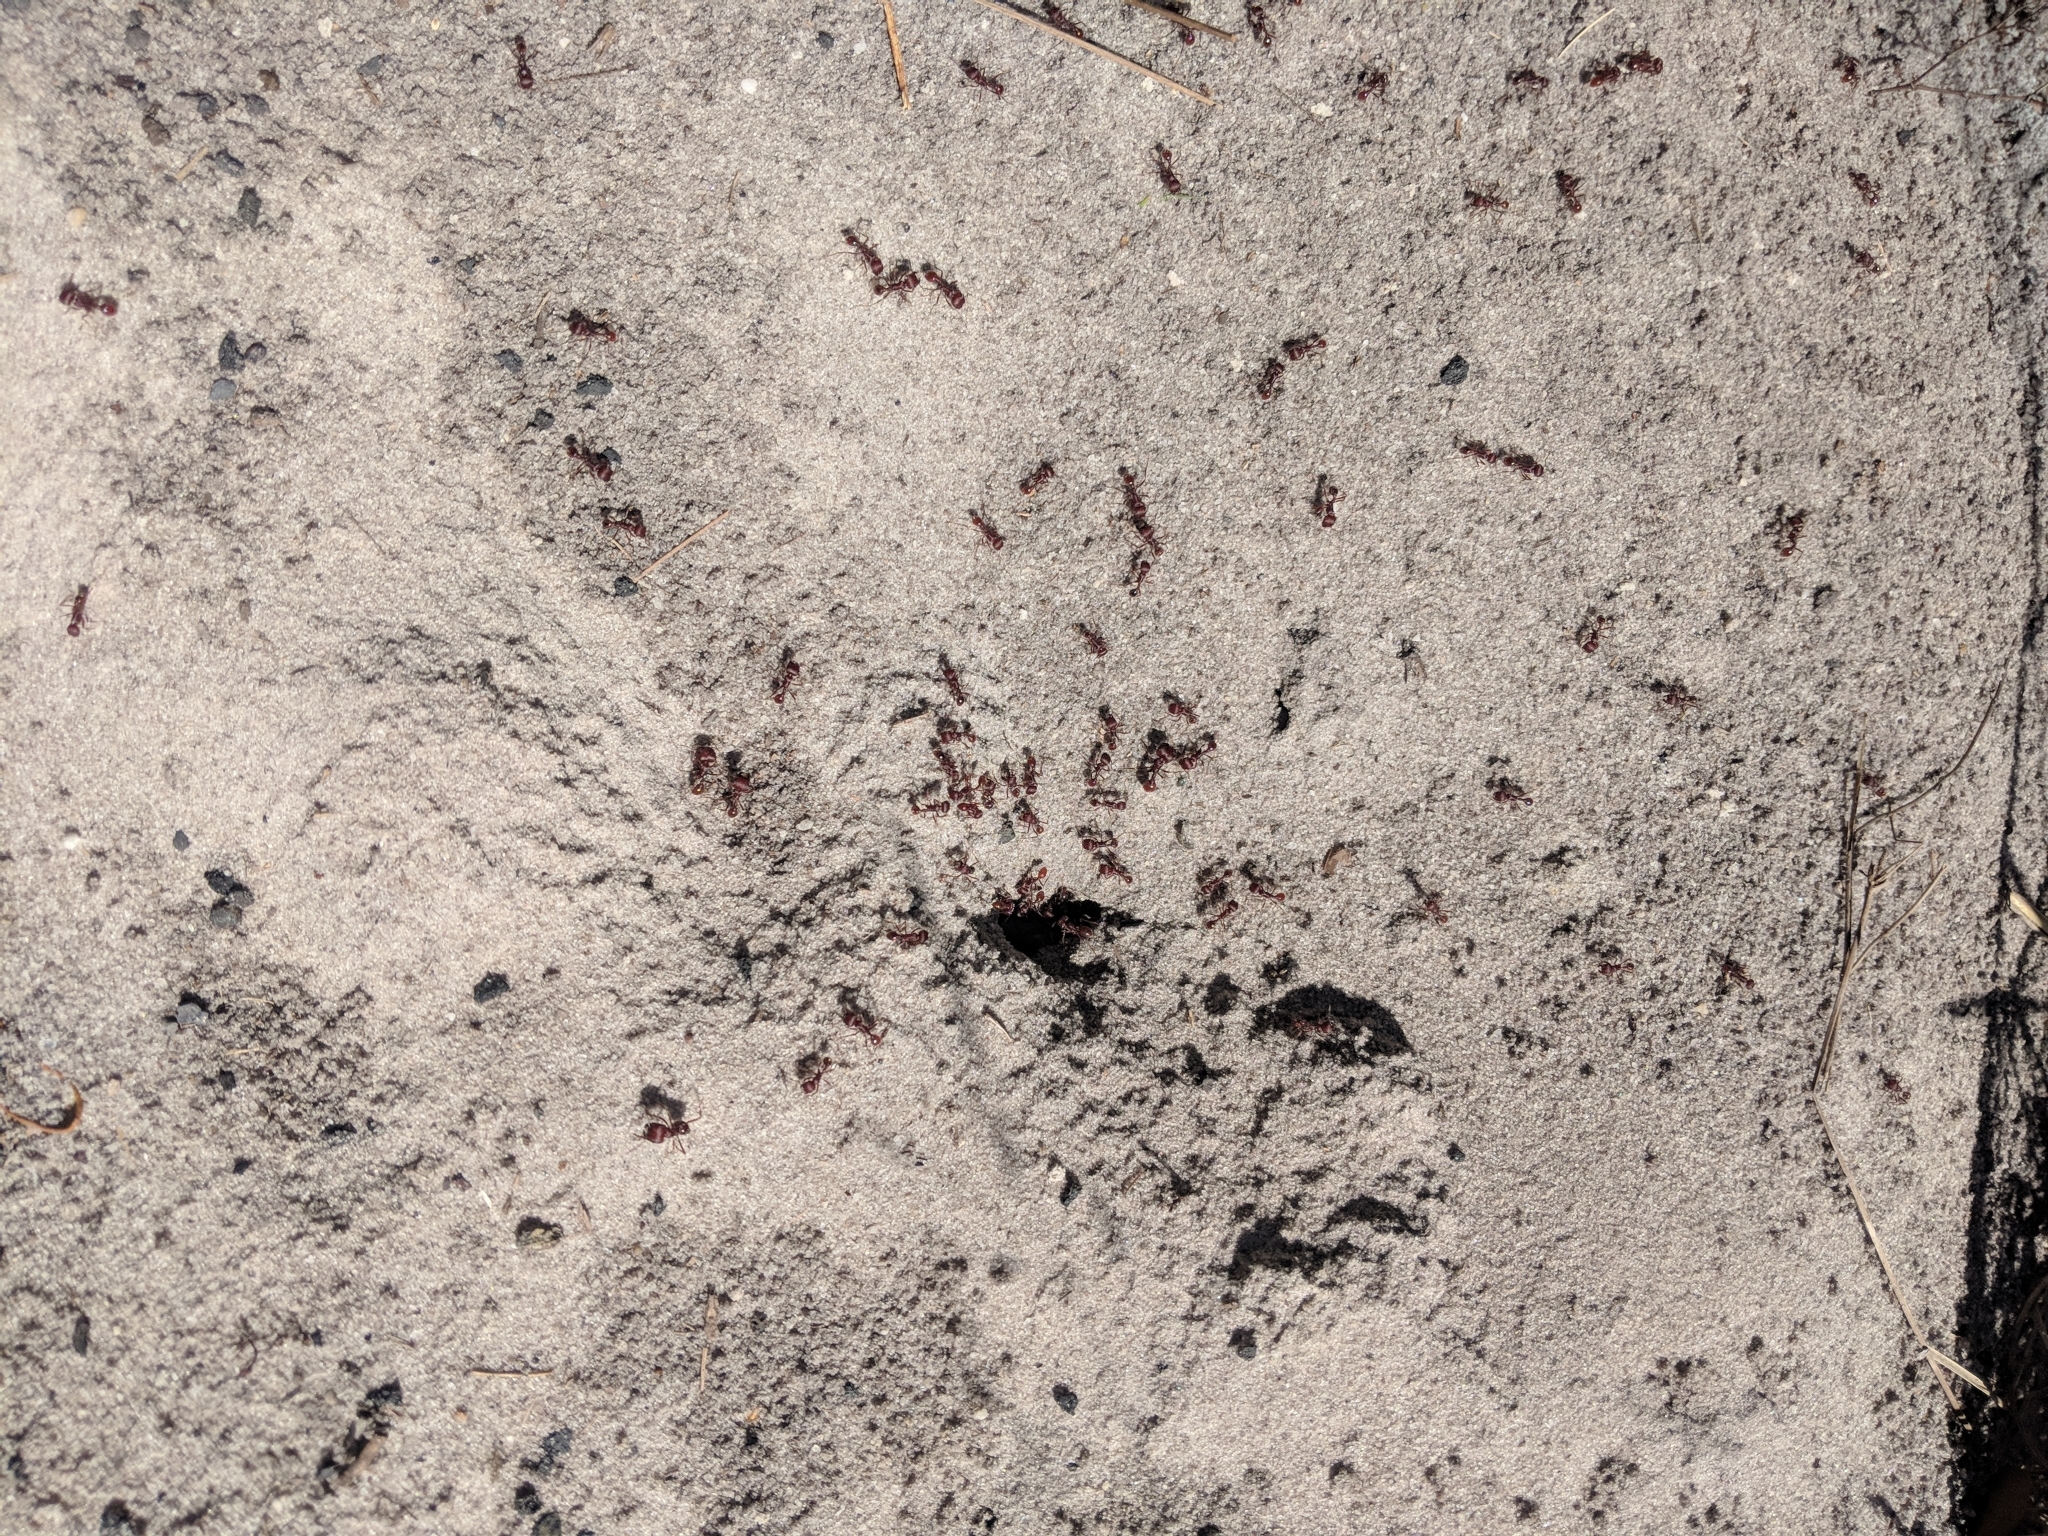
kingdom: Animalia
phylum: Arthropoda
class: Insecta
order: Hymenoptera
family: Formicidae
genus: Pogonomyrmex
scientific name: Pogonomyrmex badius
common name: Florida harvester ant
